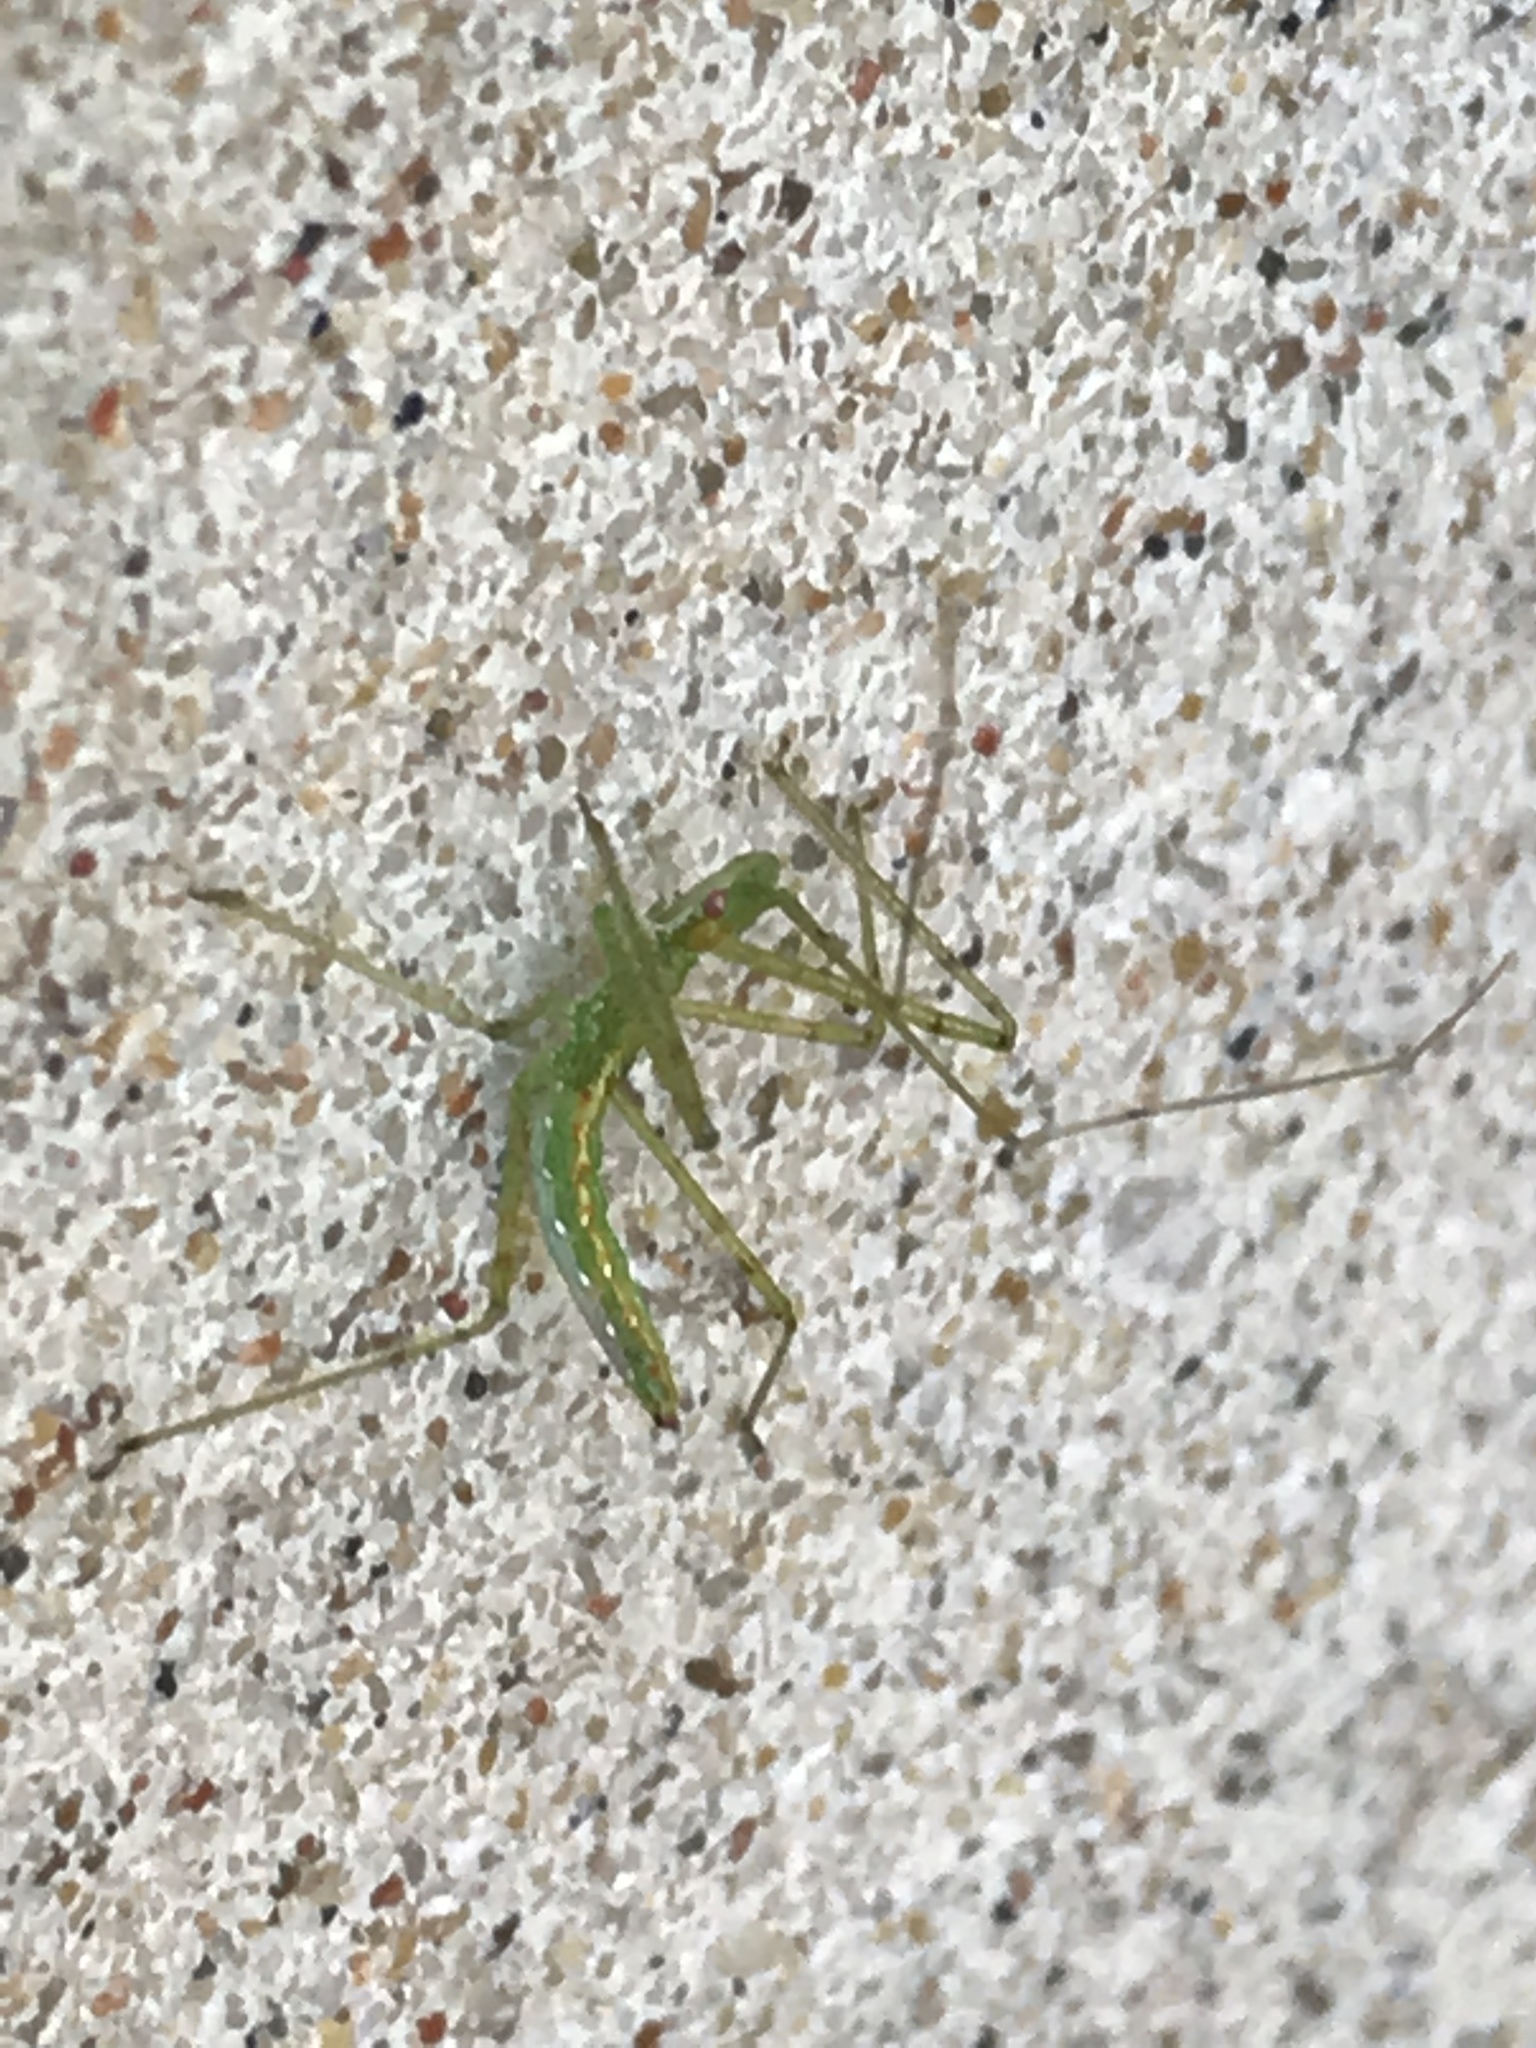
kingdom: Animalia
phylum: Arthropoda
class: Insecta
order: Hemiptera
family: Reduviidae
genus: Zelus
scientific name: Zelus luridus
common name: Pale green assassin bug
